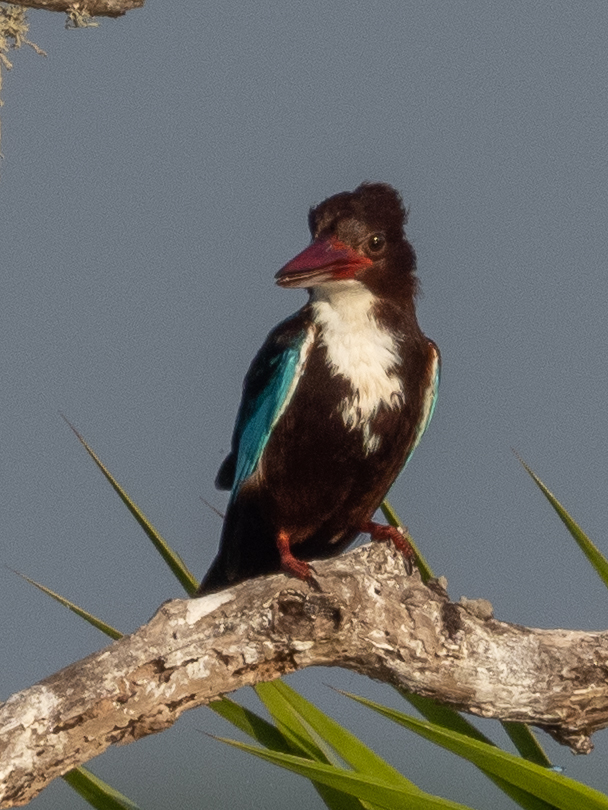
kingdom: Animalia
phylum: Chordata
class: Aves
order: Coraciiformes
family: Alcedinidae
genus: Halcyon
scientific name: Halcyon smyrnensis
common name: White-throated kingfisher
